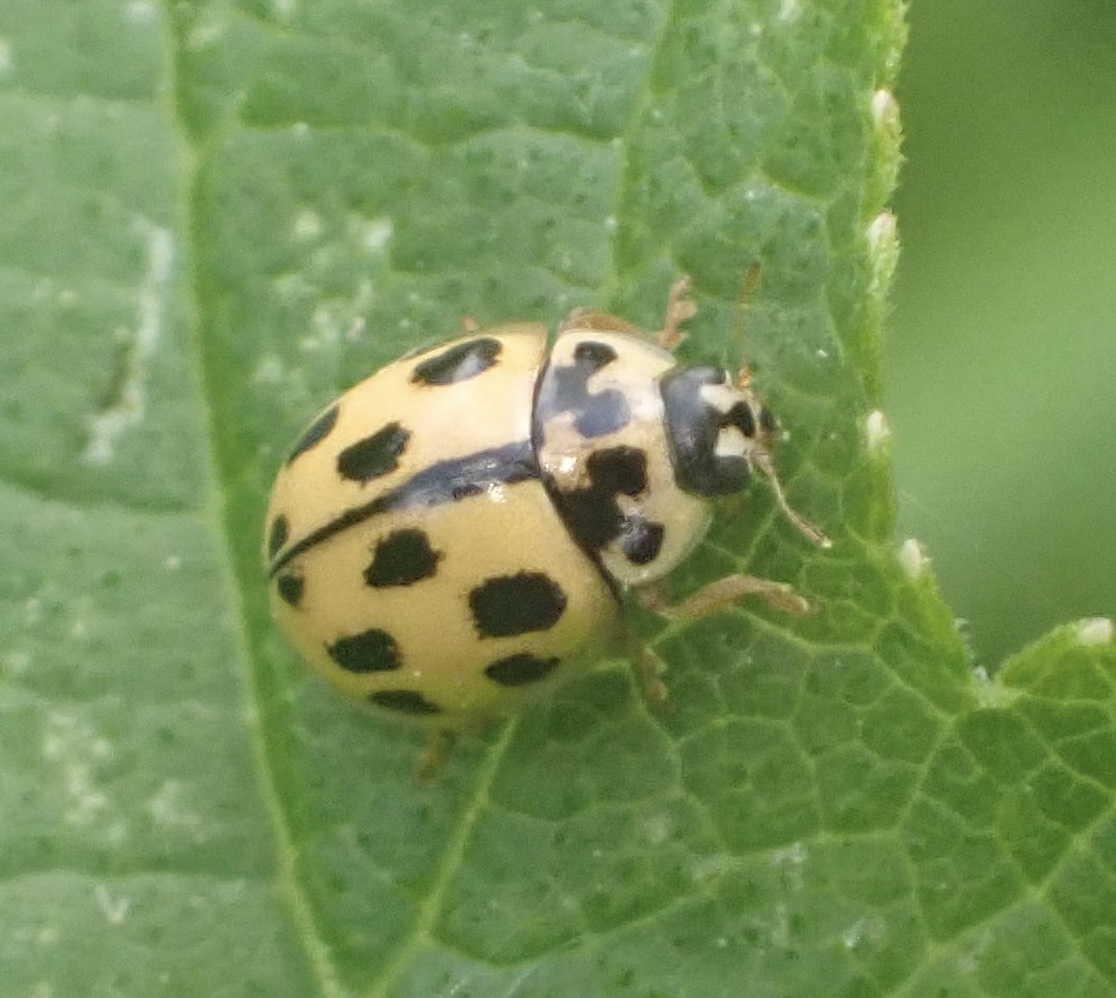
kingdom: Animalia
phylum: Arthropoda
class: Insecta
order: Coleoptera
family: Coccinellidae
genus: Propylaea
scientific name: Propylaea quatuordecimpunctata
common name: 14-spotted ladybird beetle
